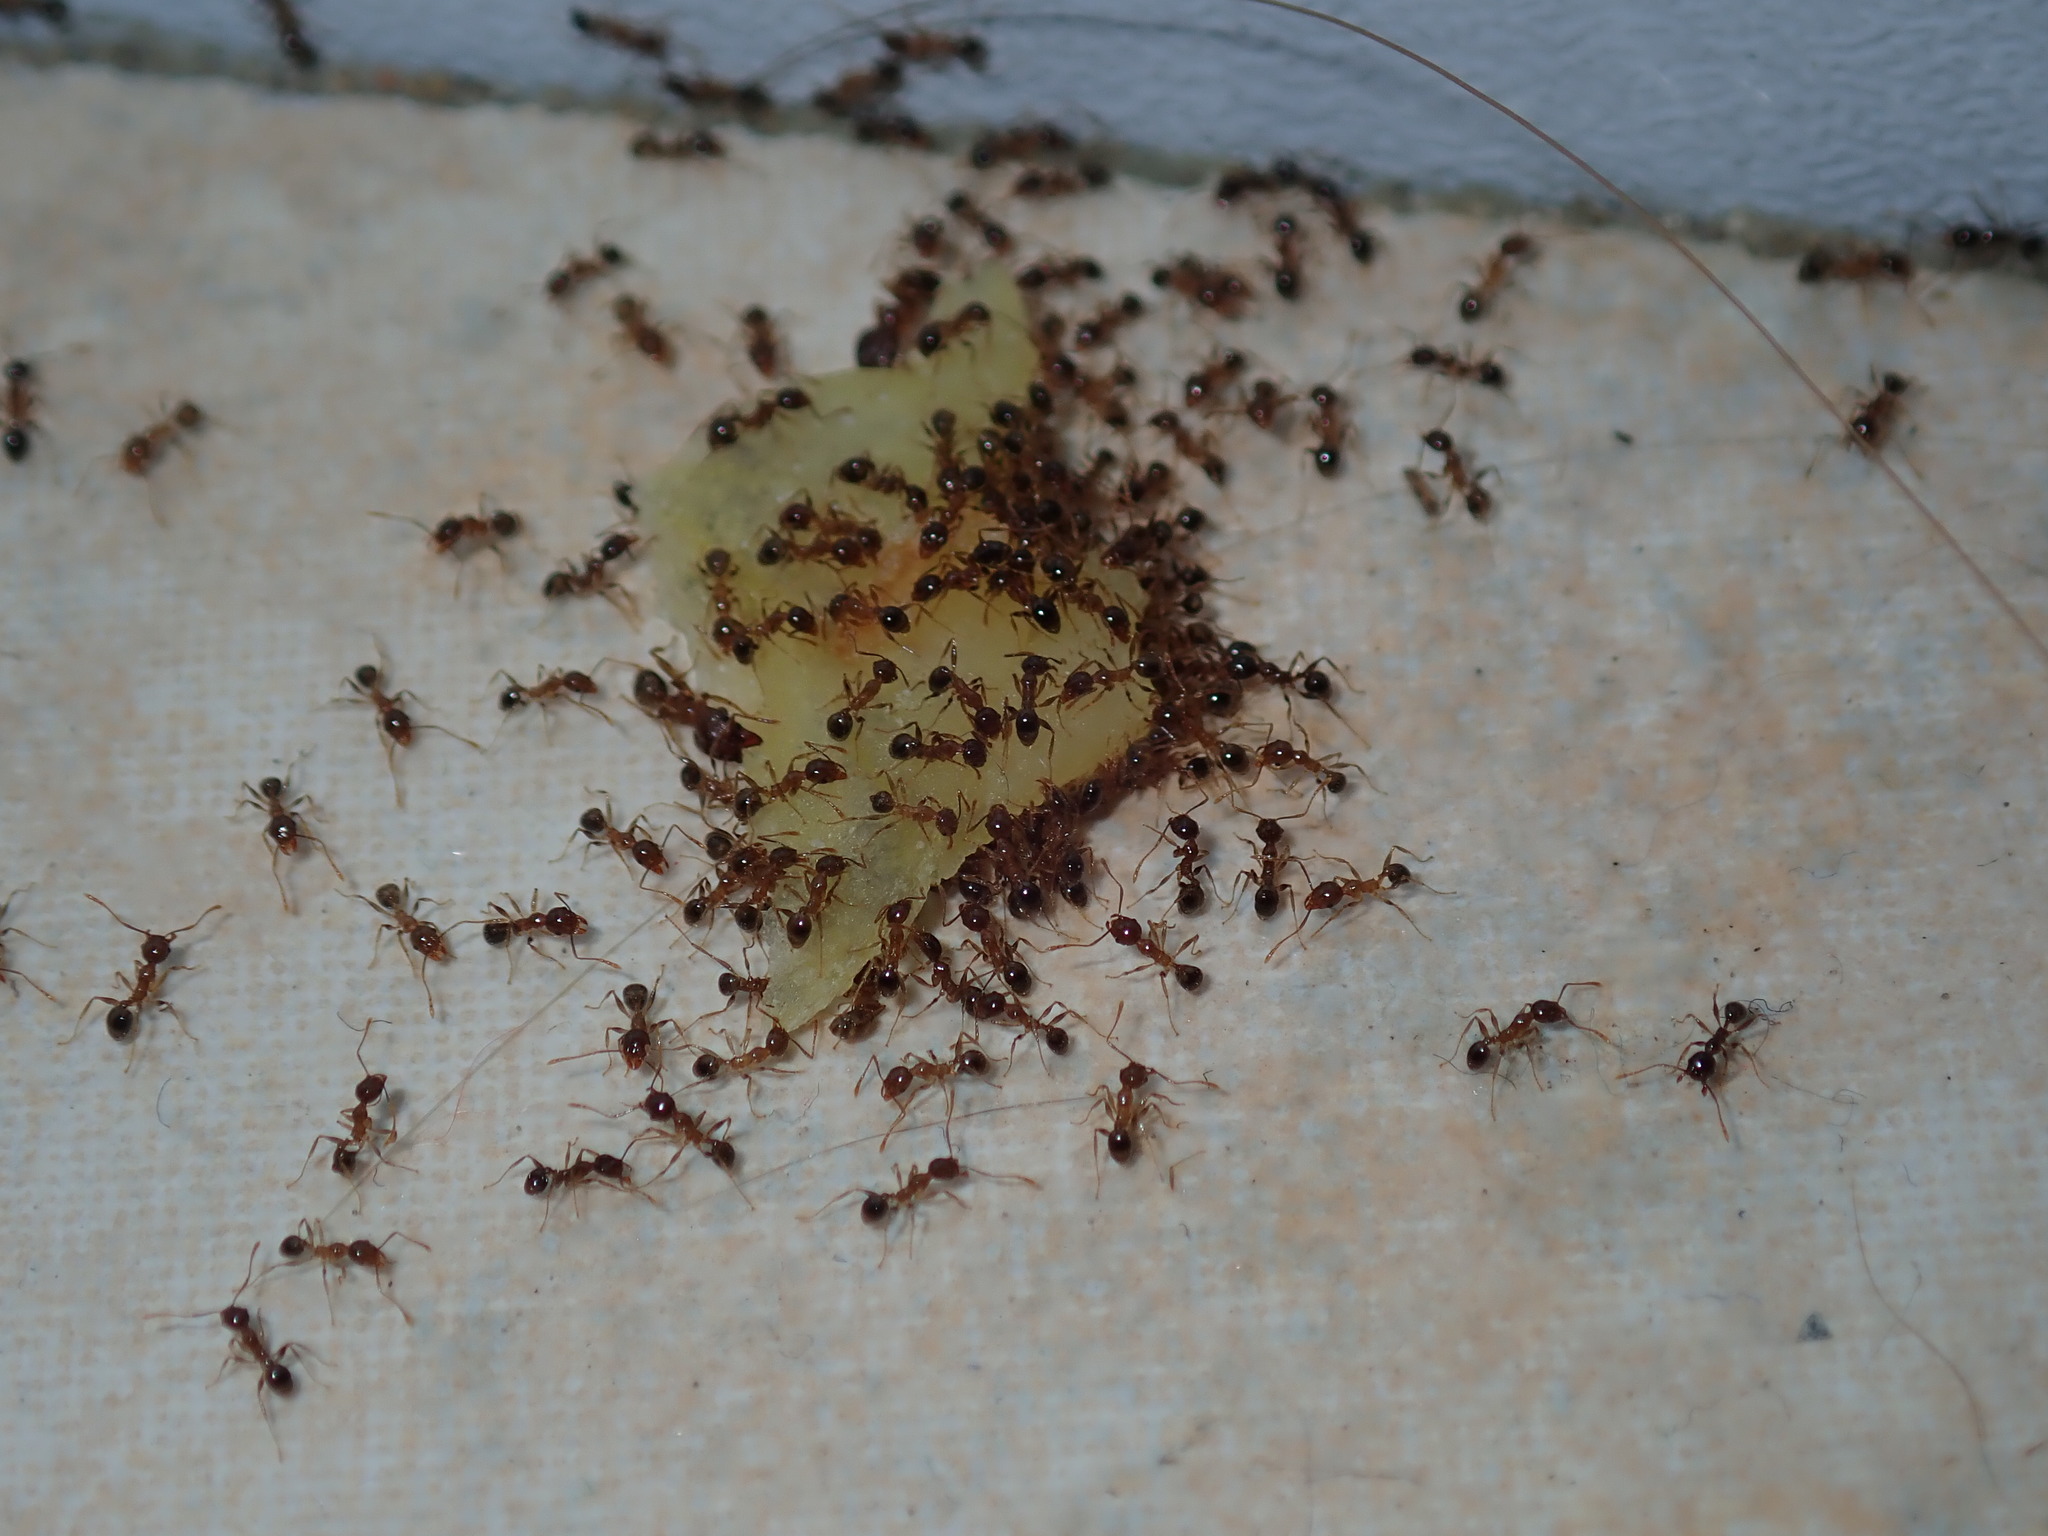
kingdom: Animalia
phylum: Arthropoda
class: Insecta
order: Hymenoptera
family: Formicidae
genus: Pheidole
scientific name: Pheidole megacephala
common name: Bigheaded ant
